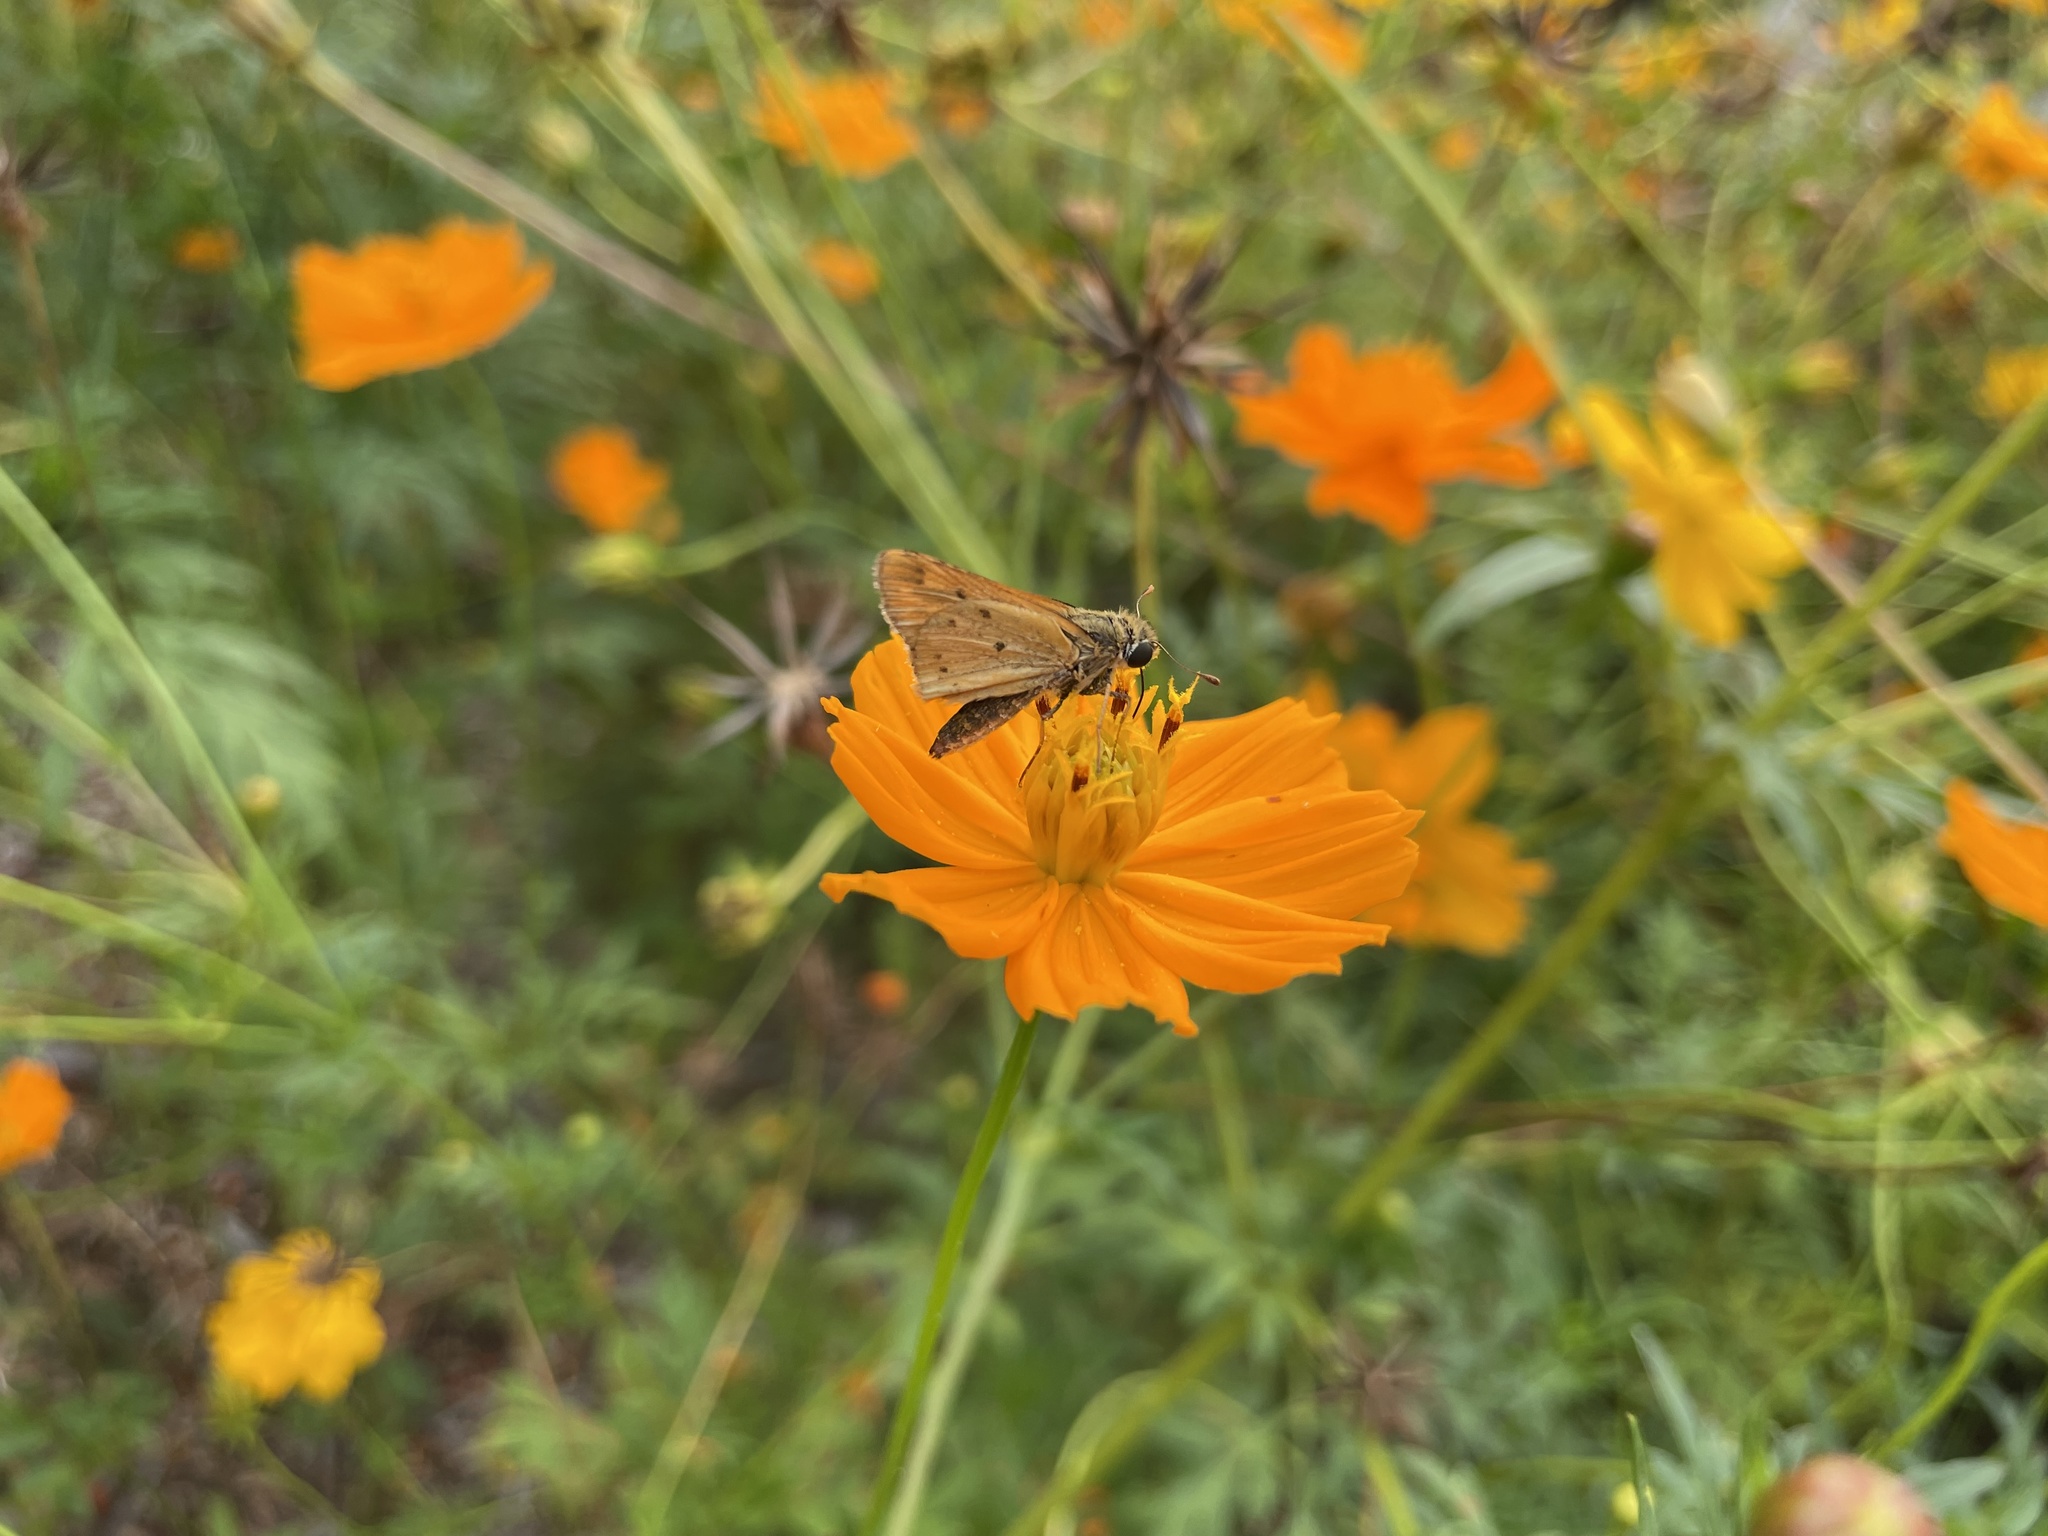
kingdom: Animalia
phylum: Arthropoda
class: Insecta
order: Lepidoptera
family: Hesperiidae
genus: Hylephila
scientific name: Hylephila phyleus
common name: Fiery skipper
